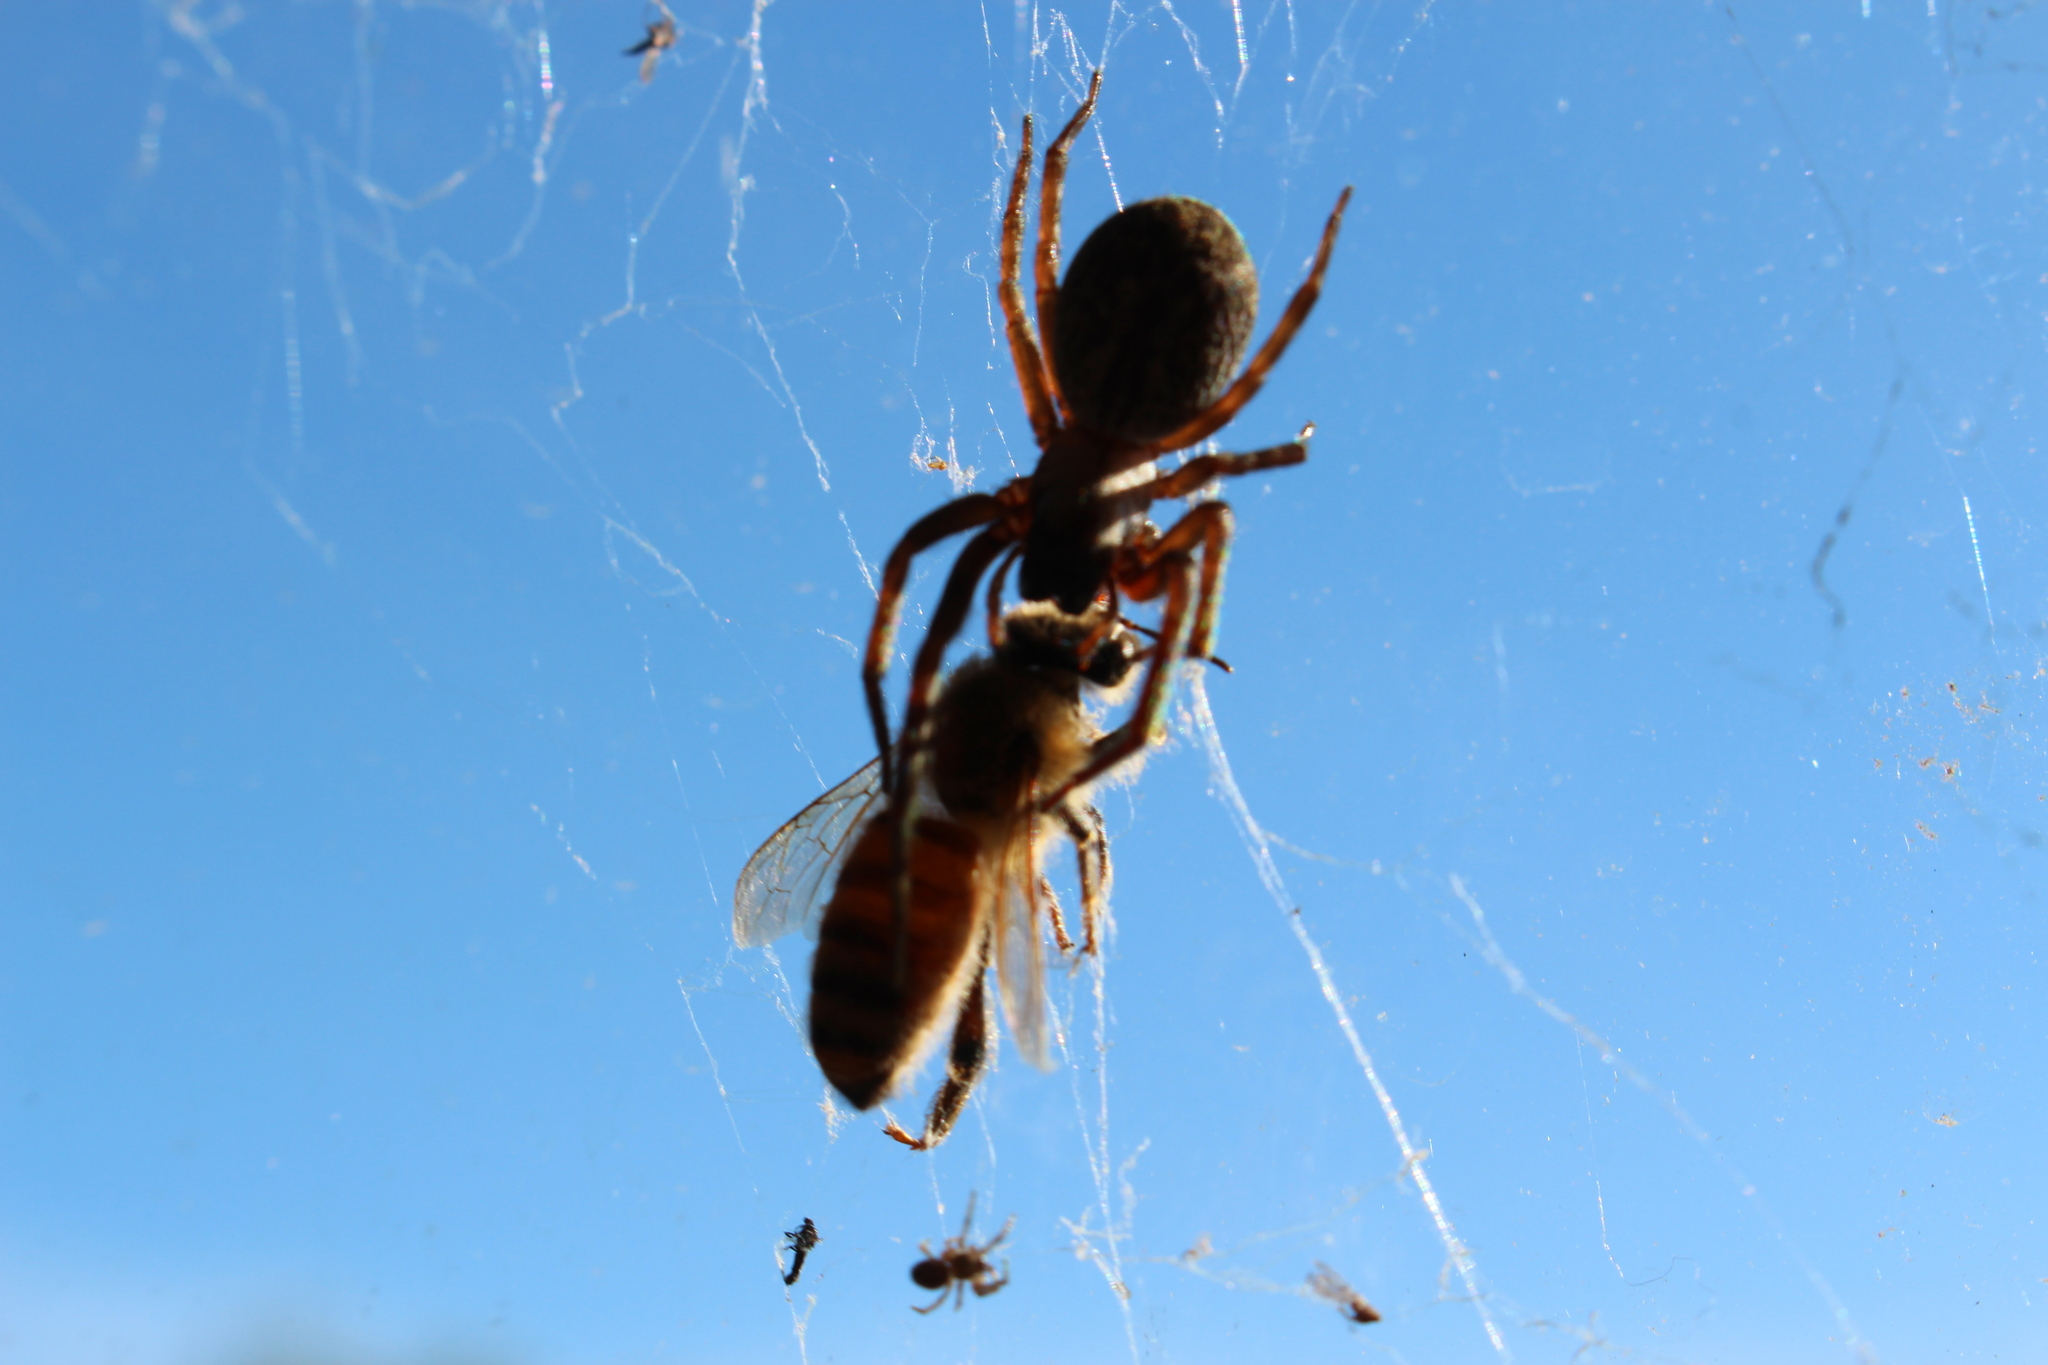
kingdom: Animalia
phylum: Arthropoda
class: Arachnida
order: Araneae
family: Desidae
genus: Badumna
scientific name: Badumna longinqua
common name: Gray house spider
